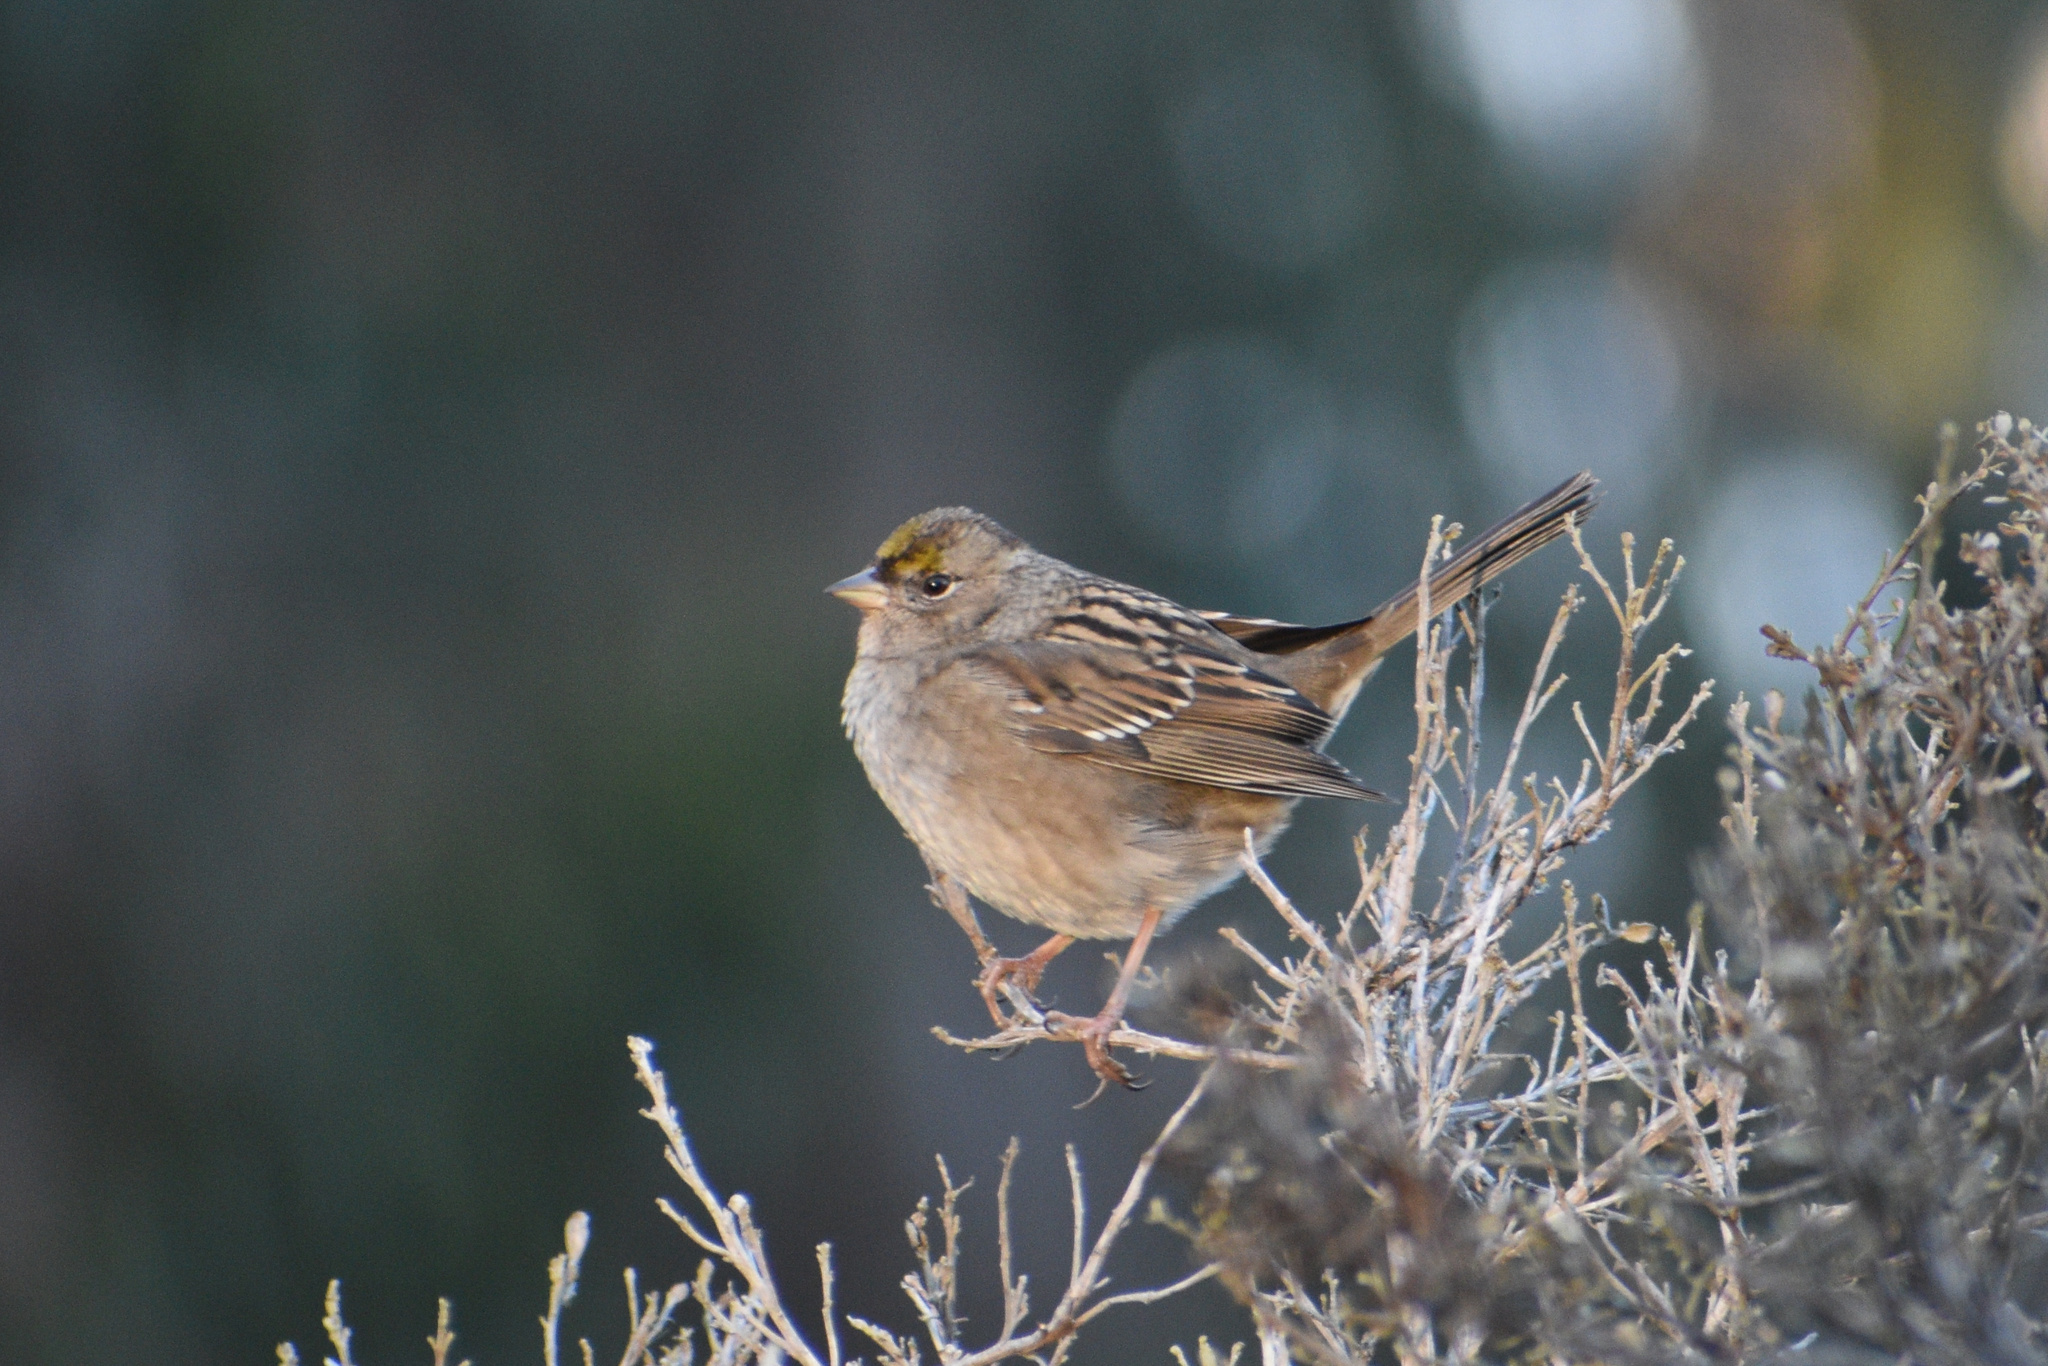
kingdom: Animalia
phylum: Chordata
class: Aves
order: Passeriformes
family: Passerellidae
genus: Zonotrichia
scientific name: Zonotrichia atricapilla
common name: Golden-crowned sparrow
